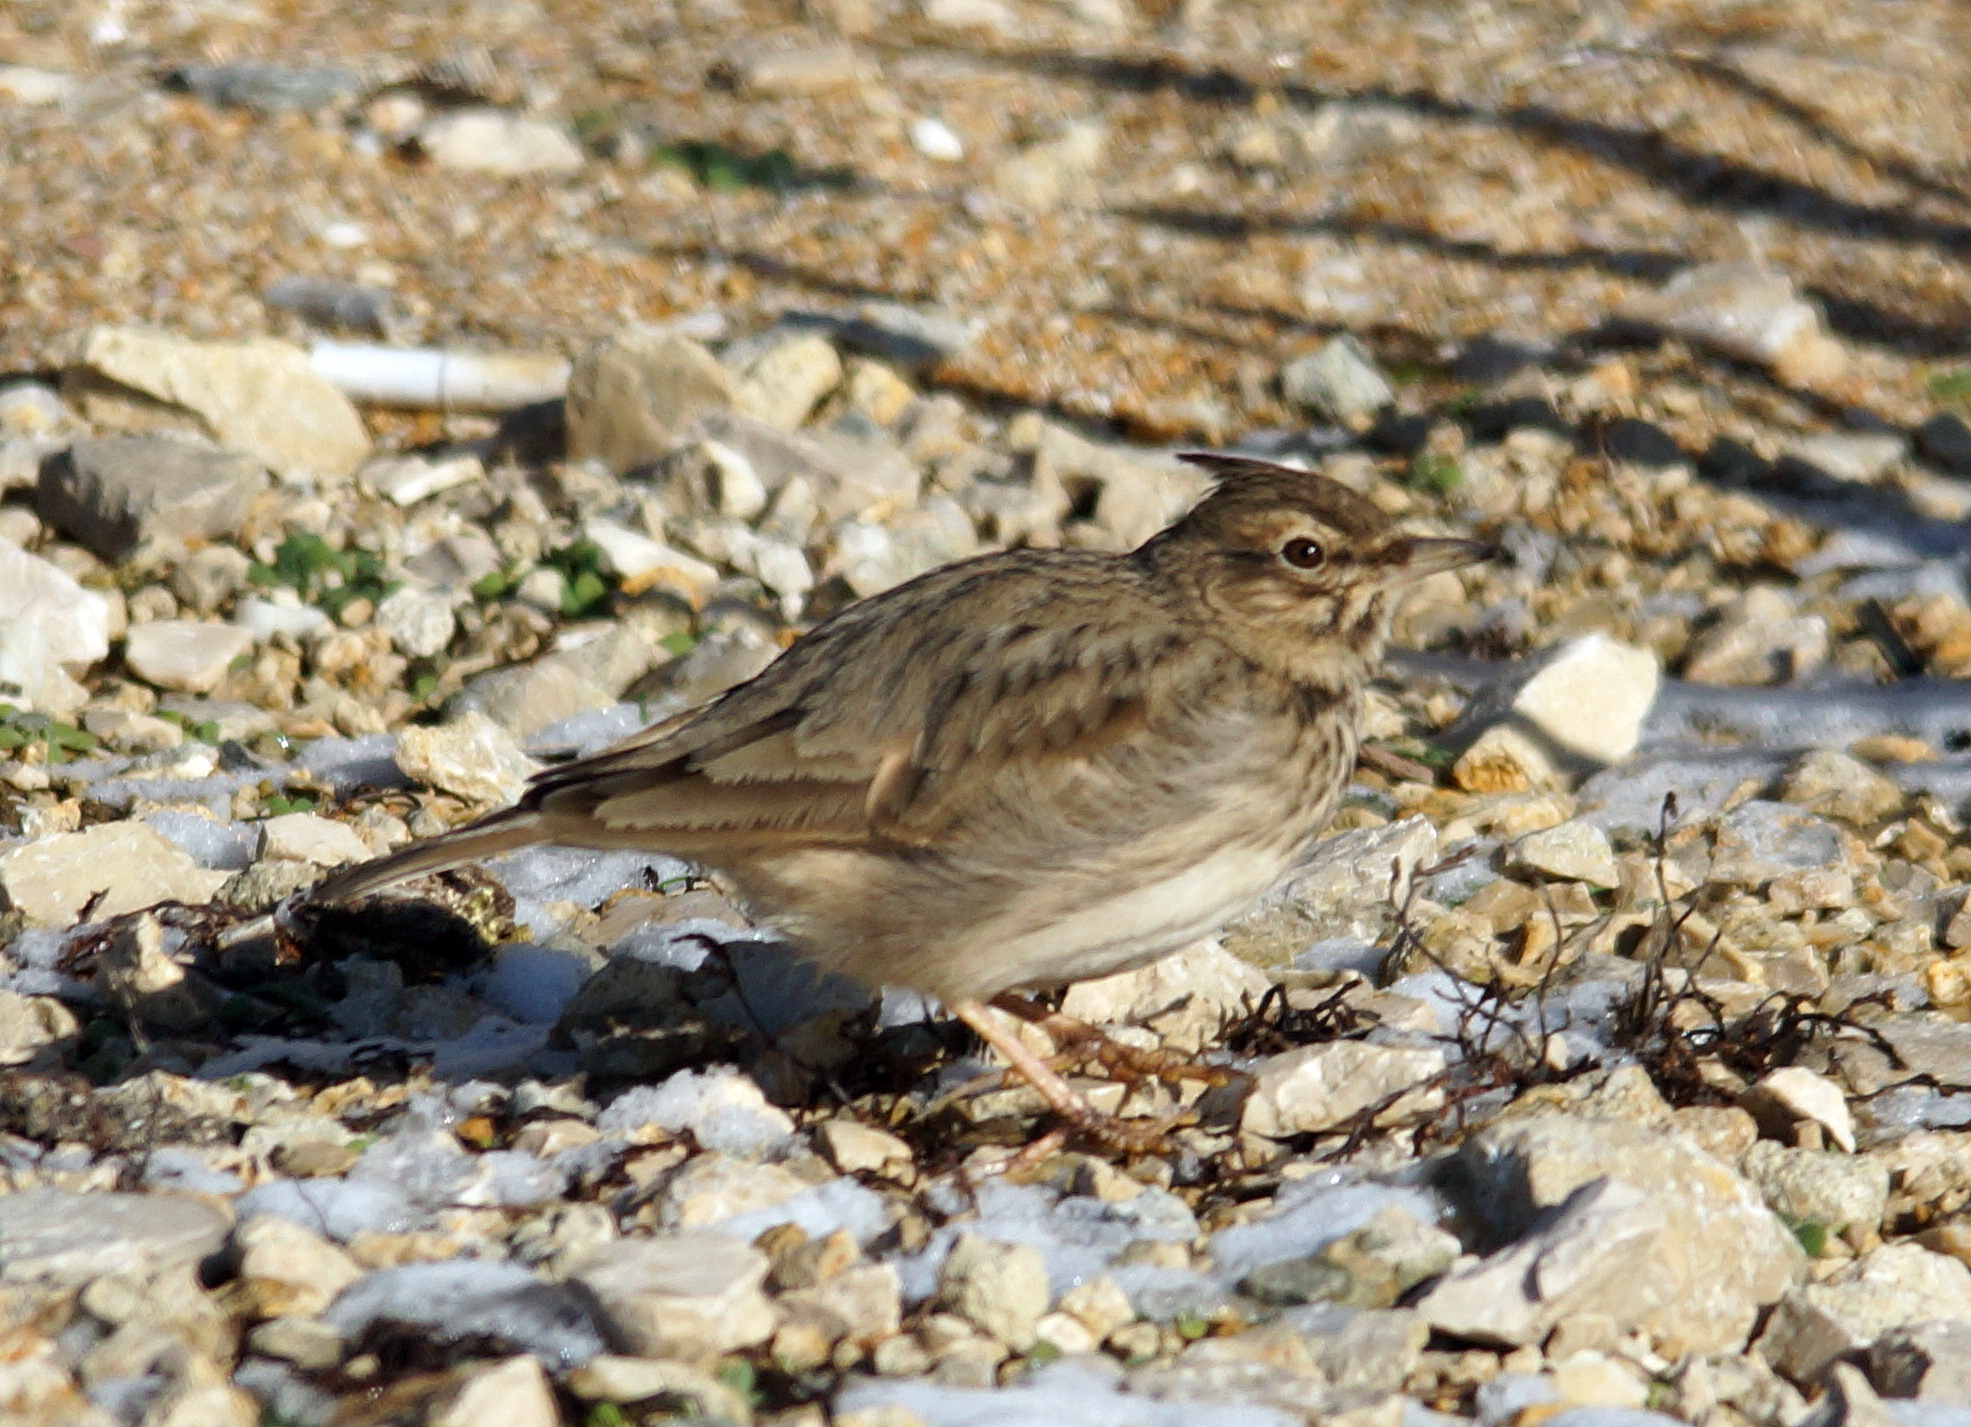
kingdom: Animalia
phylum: Chordata
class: Aves
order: Passeriformes
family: Alaudidae
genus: Galerida
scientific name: Galerida cristata
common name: Crested lark
